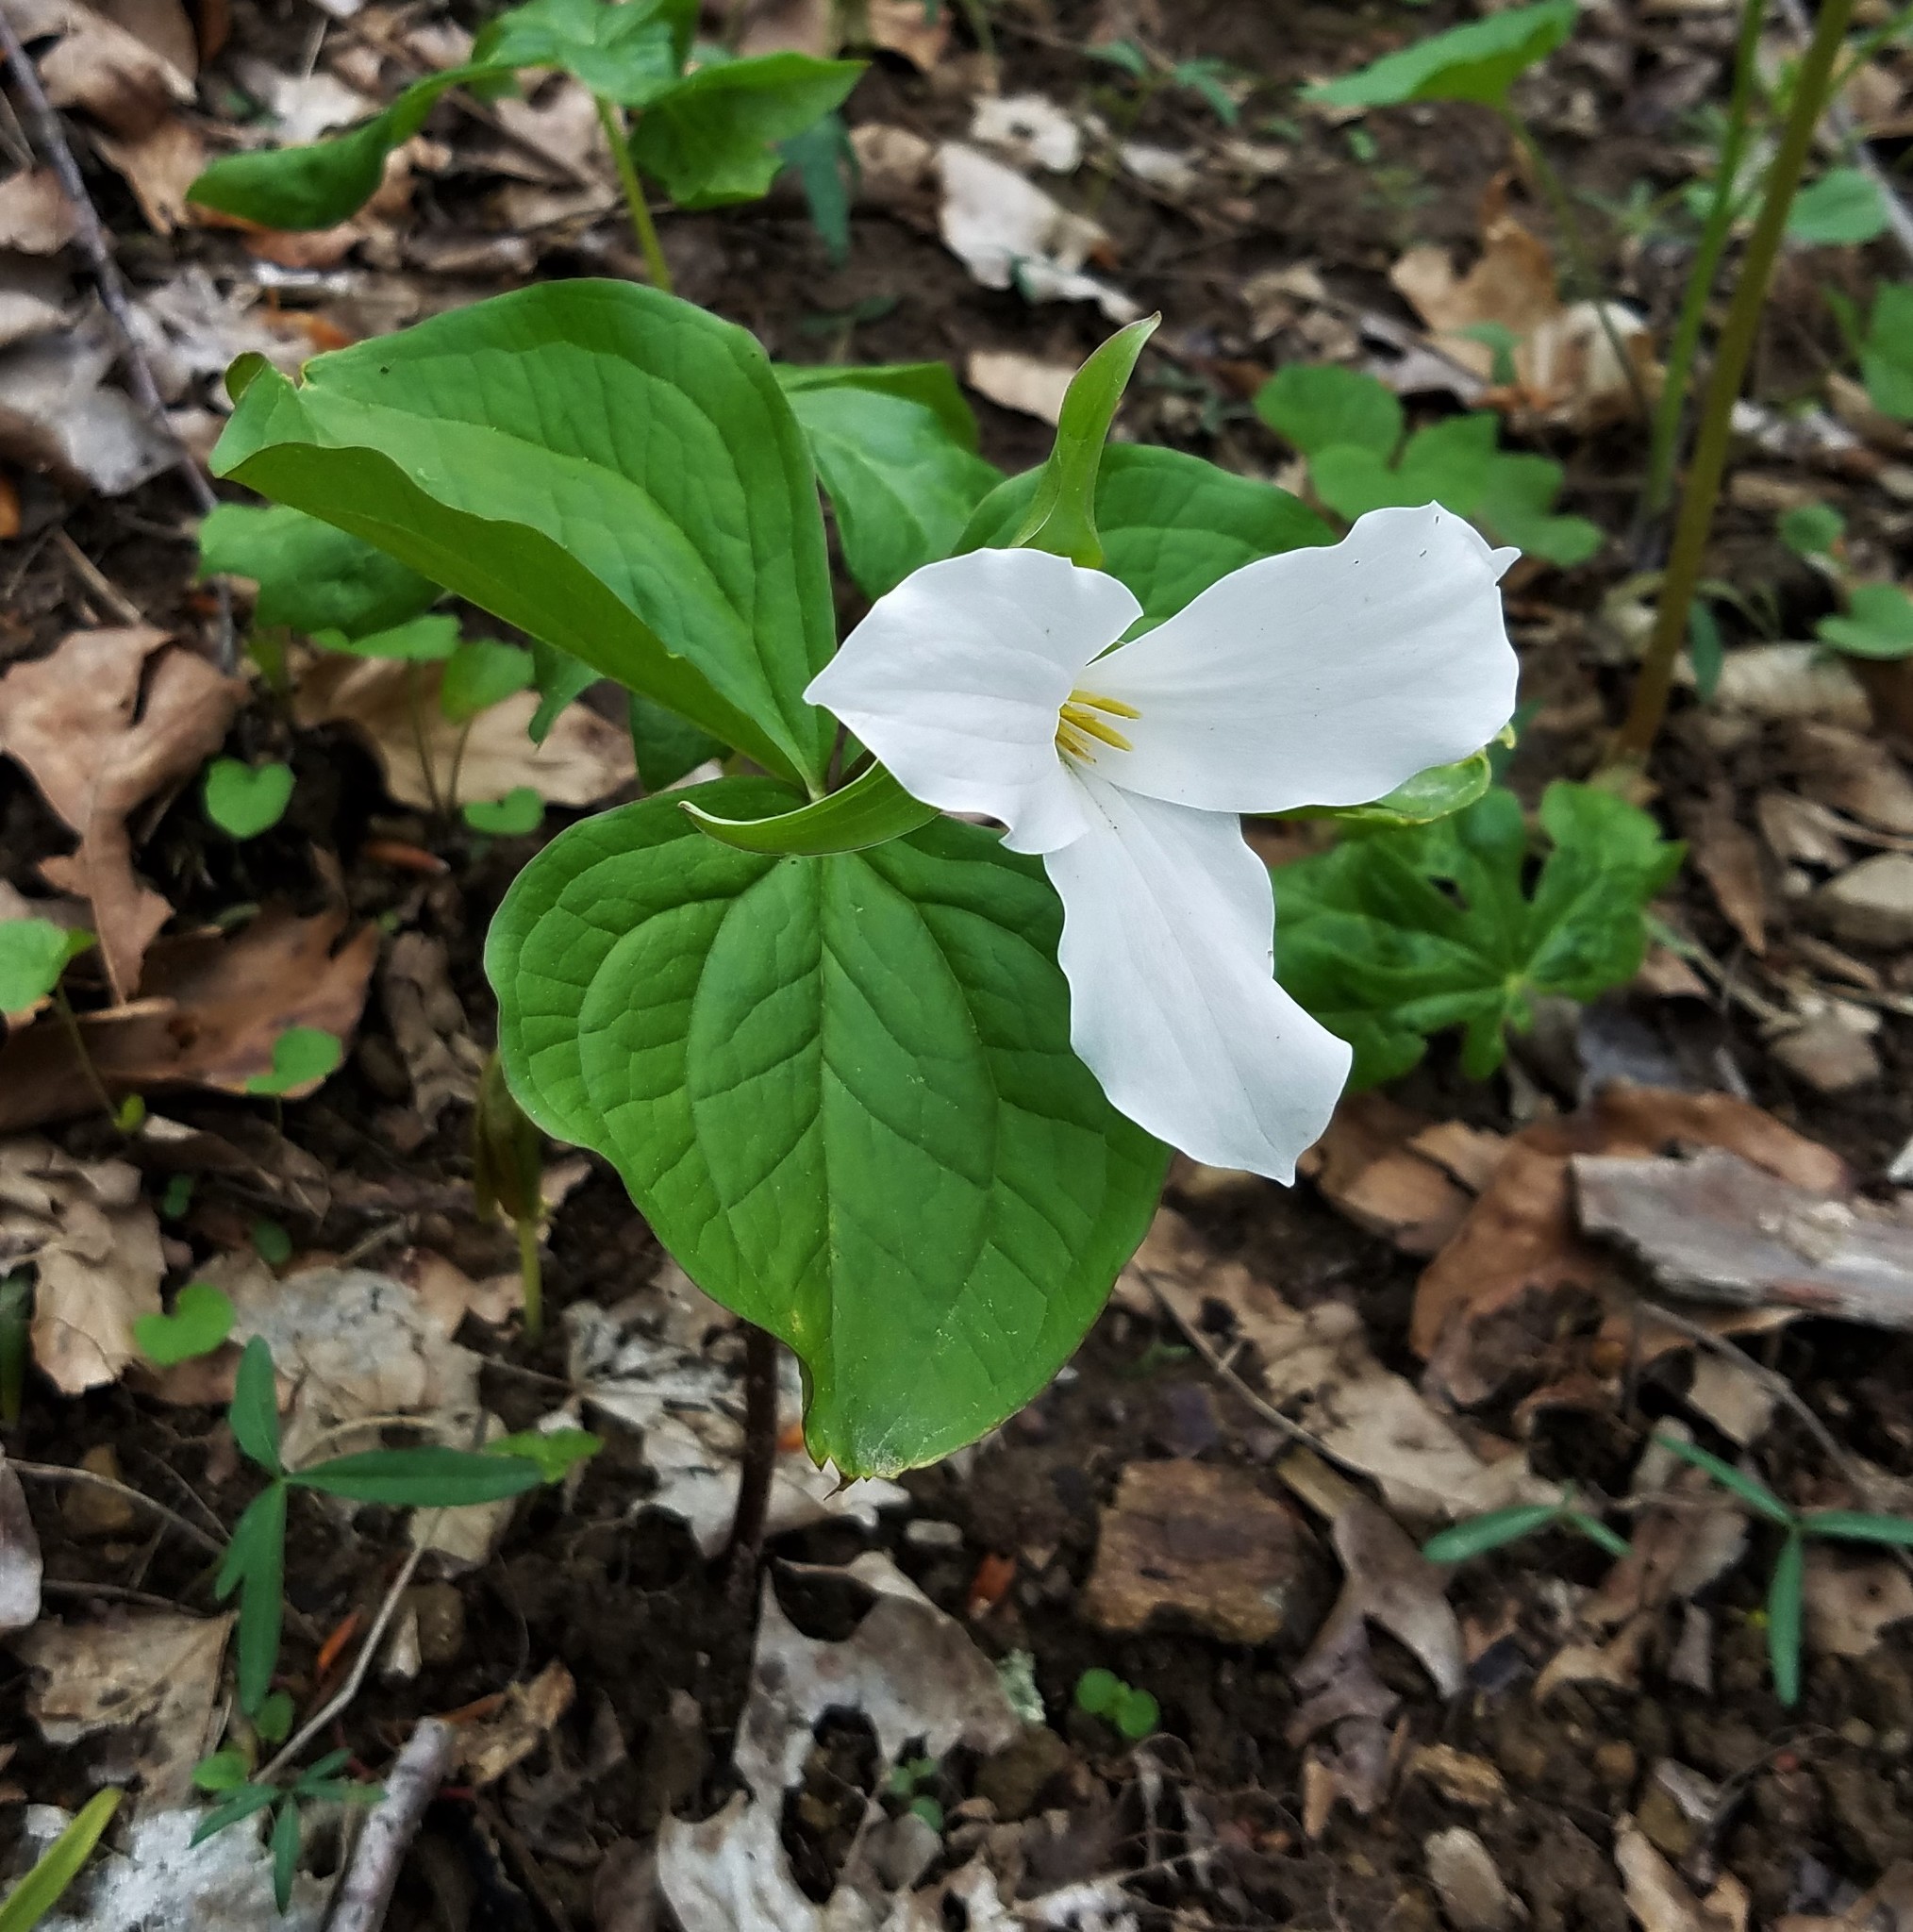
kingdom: Plantae
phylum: Tracheophyta
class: Liliopsida
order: Liliales
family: Melanthiaceae
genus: Trillium
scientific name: Trillium grandiflorum
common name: Great white trillium
